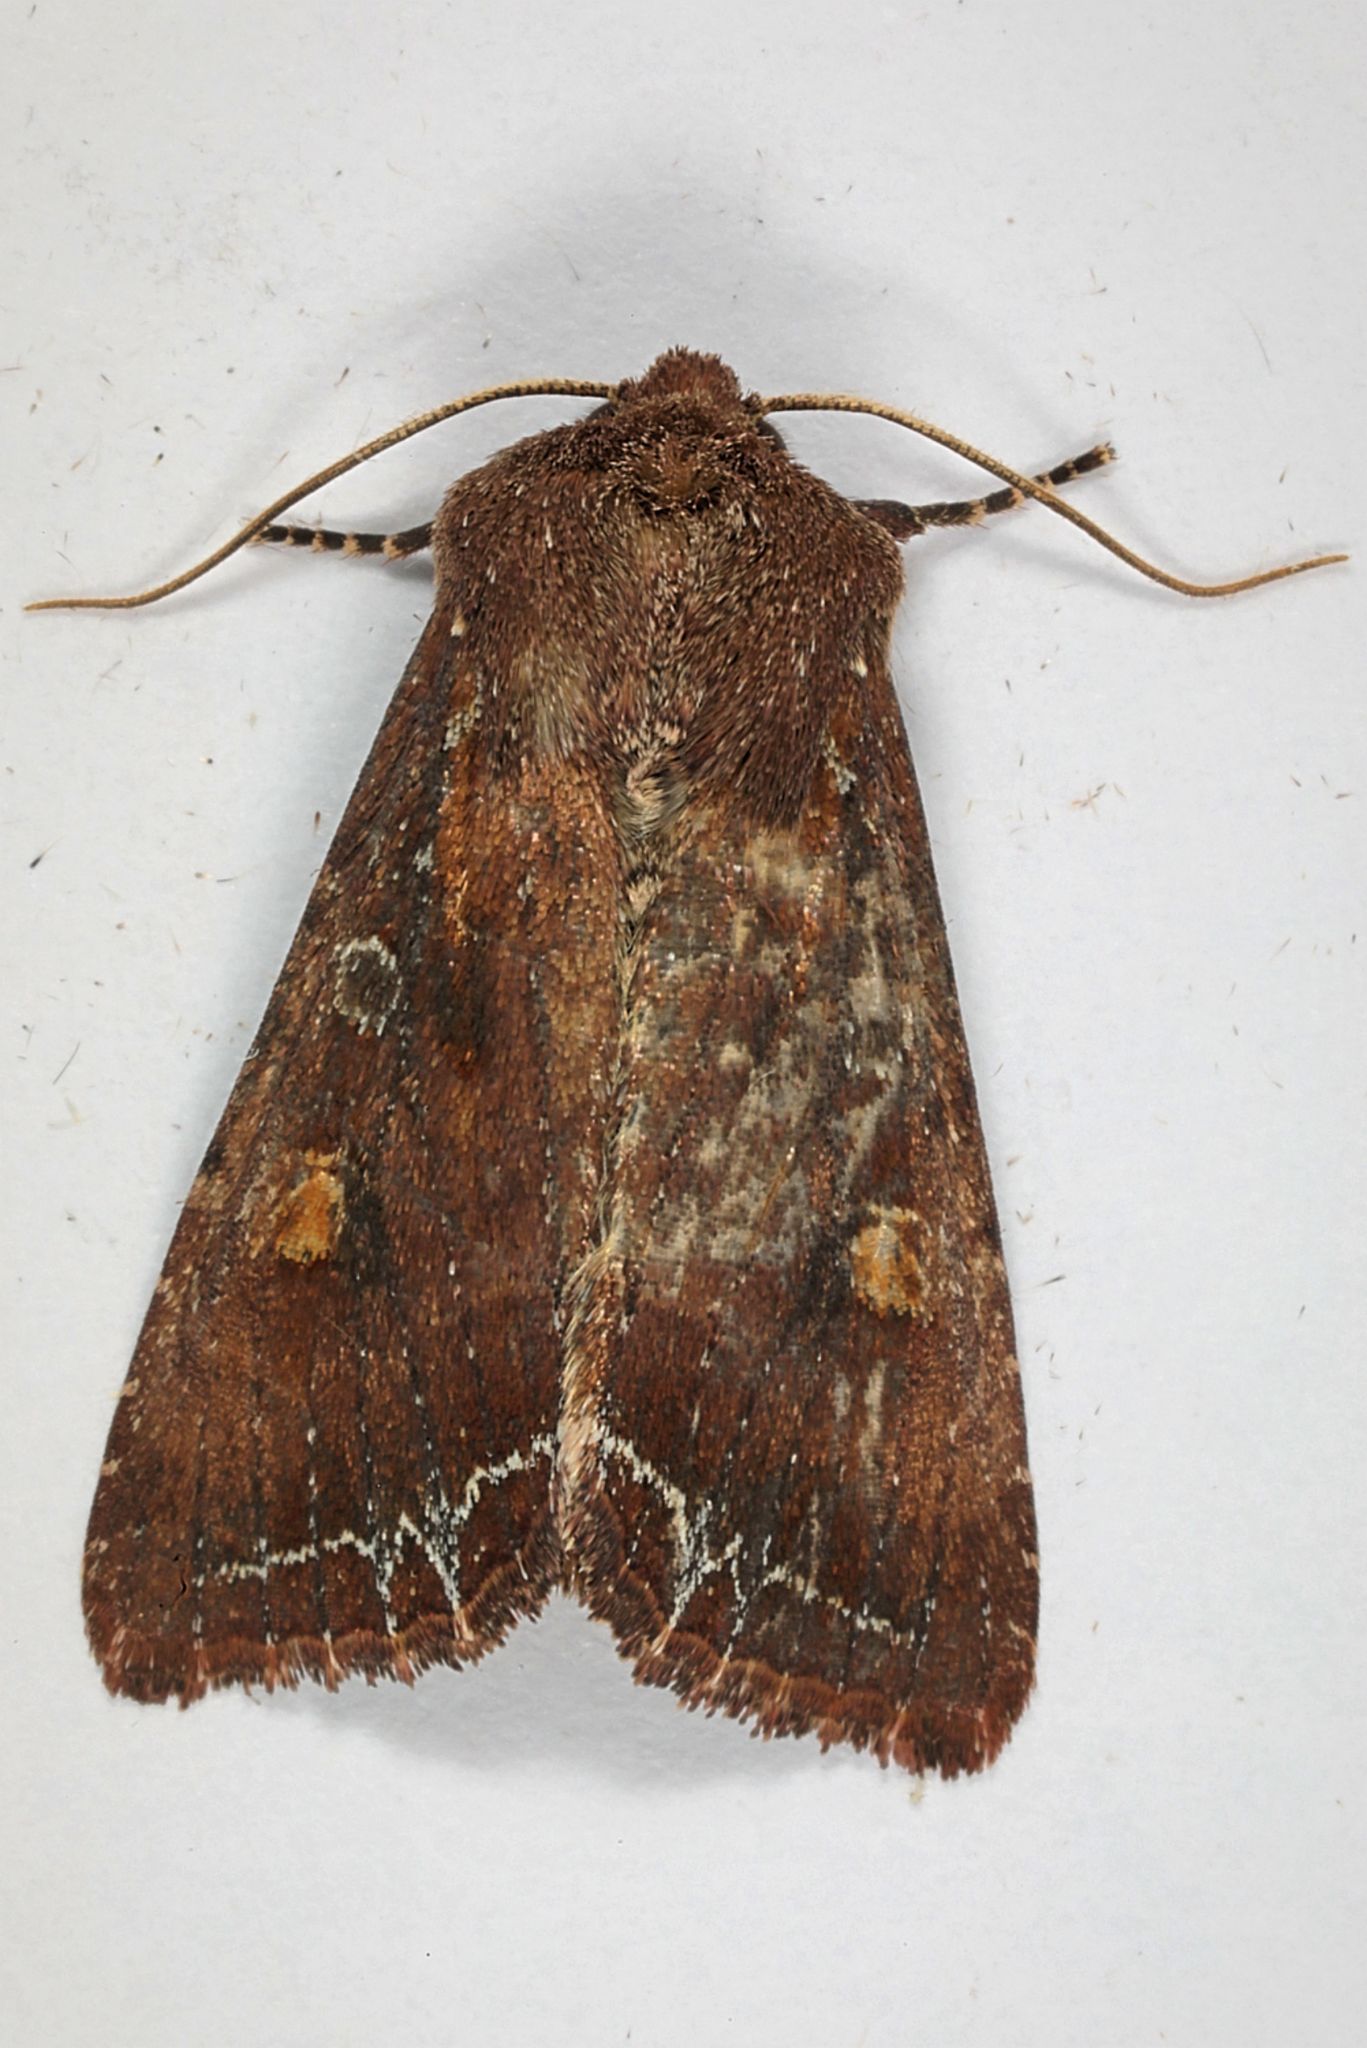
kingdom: Animalia
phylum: Arthropoda
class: Insecta
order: Lepidoptera
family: Noctuidae
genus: Lacanobia
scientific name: Lacanobia oleracea
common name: Bright-line brown-eye
